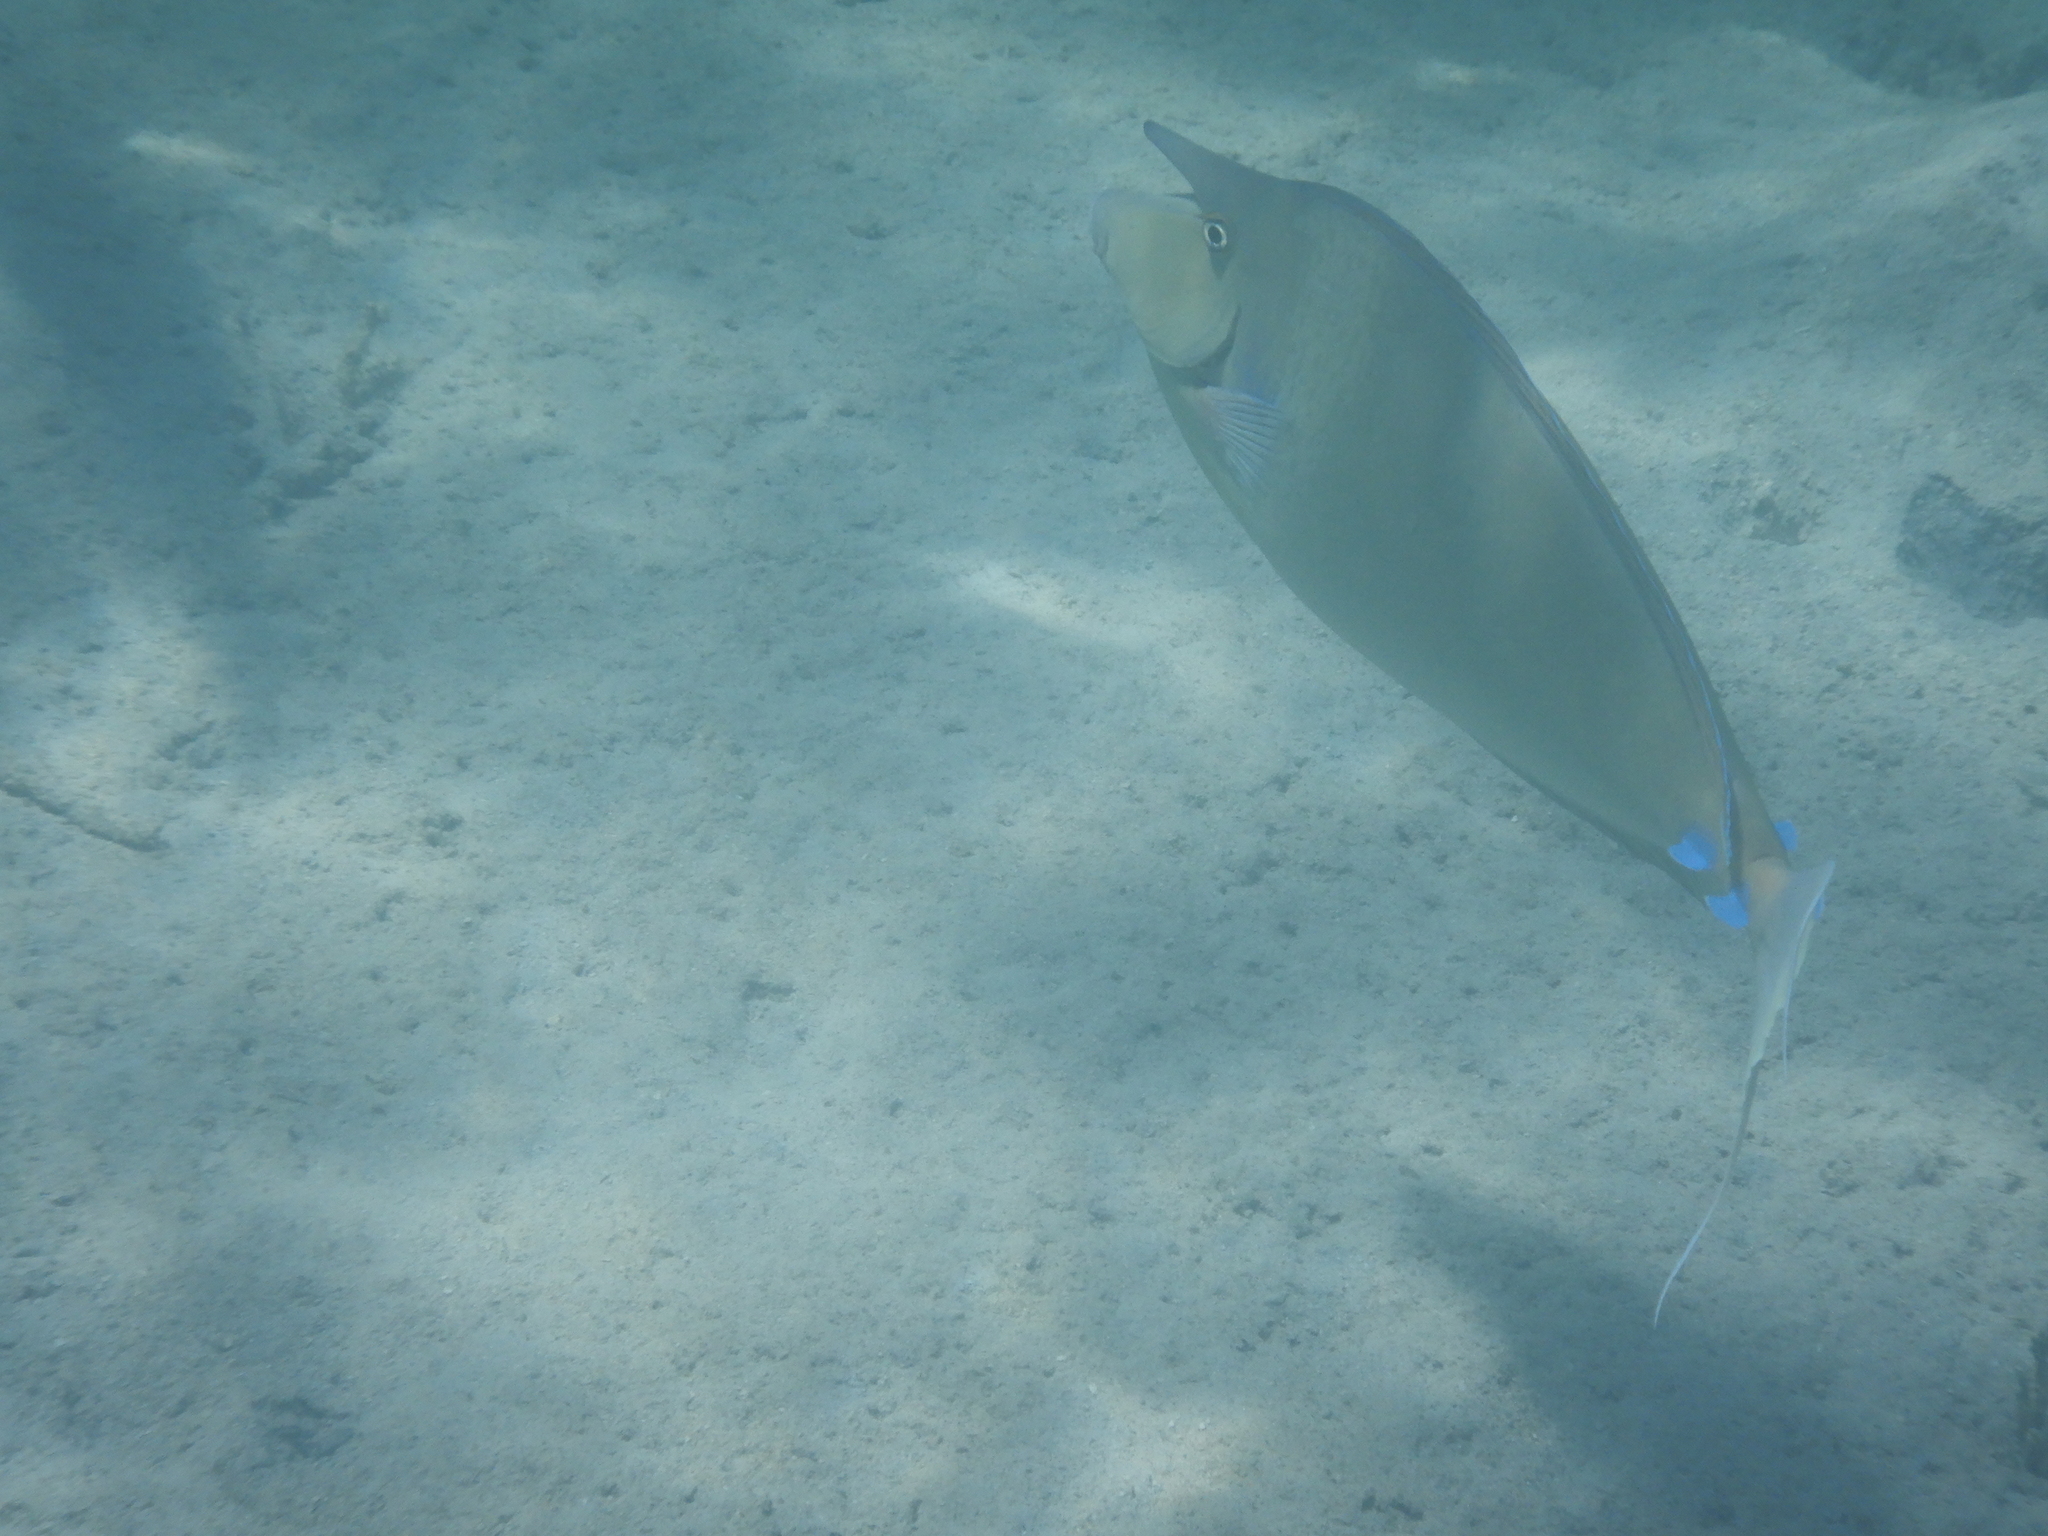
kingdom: Animalia
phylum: Chordata
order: Perciformes
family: Acanthuridae
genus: Naso
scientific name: Naso unicornis
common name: Bluespine unicornfish
